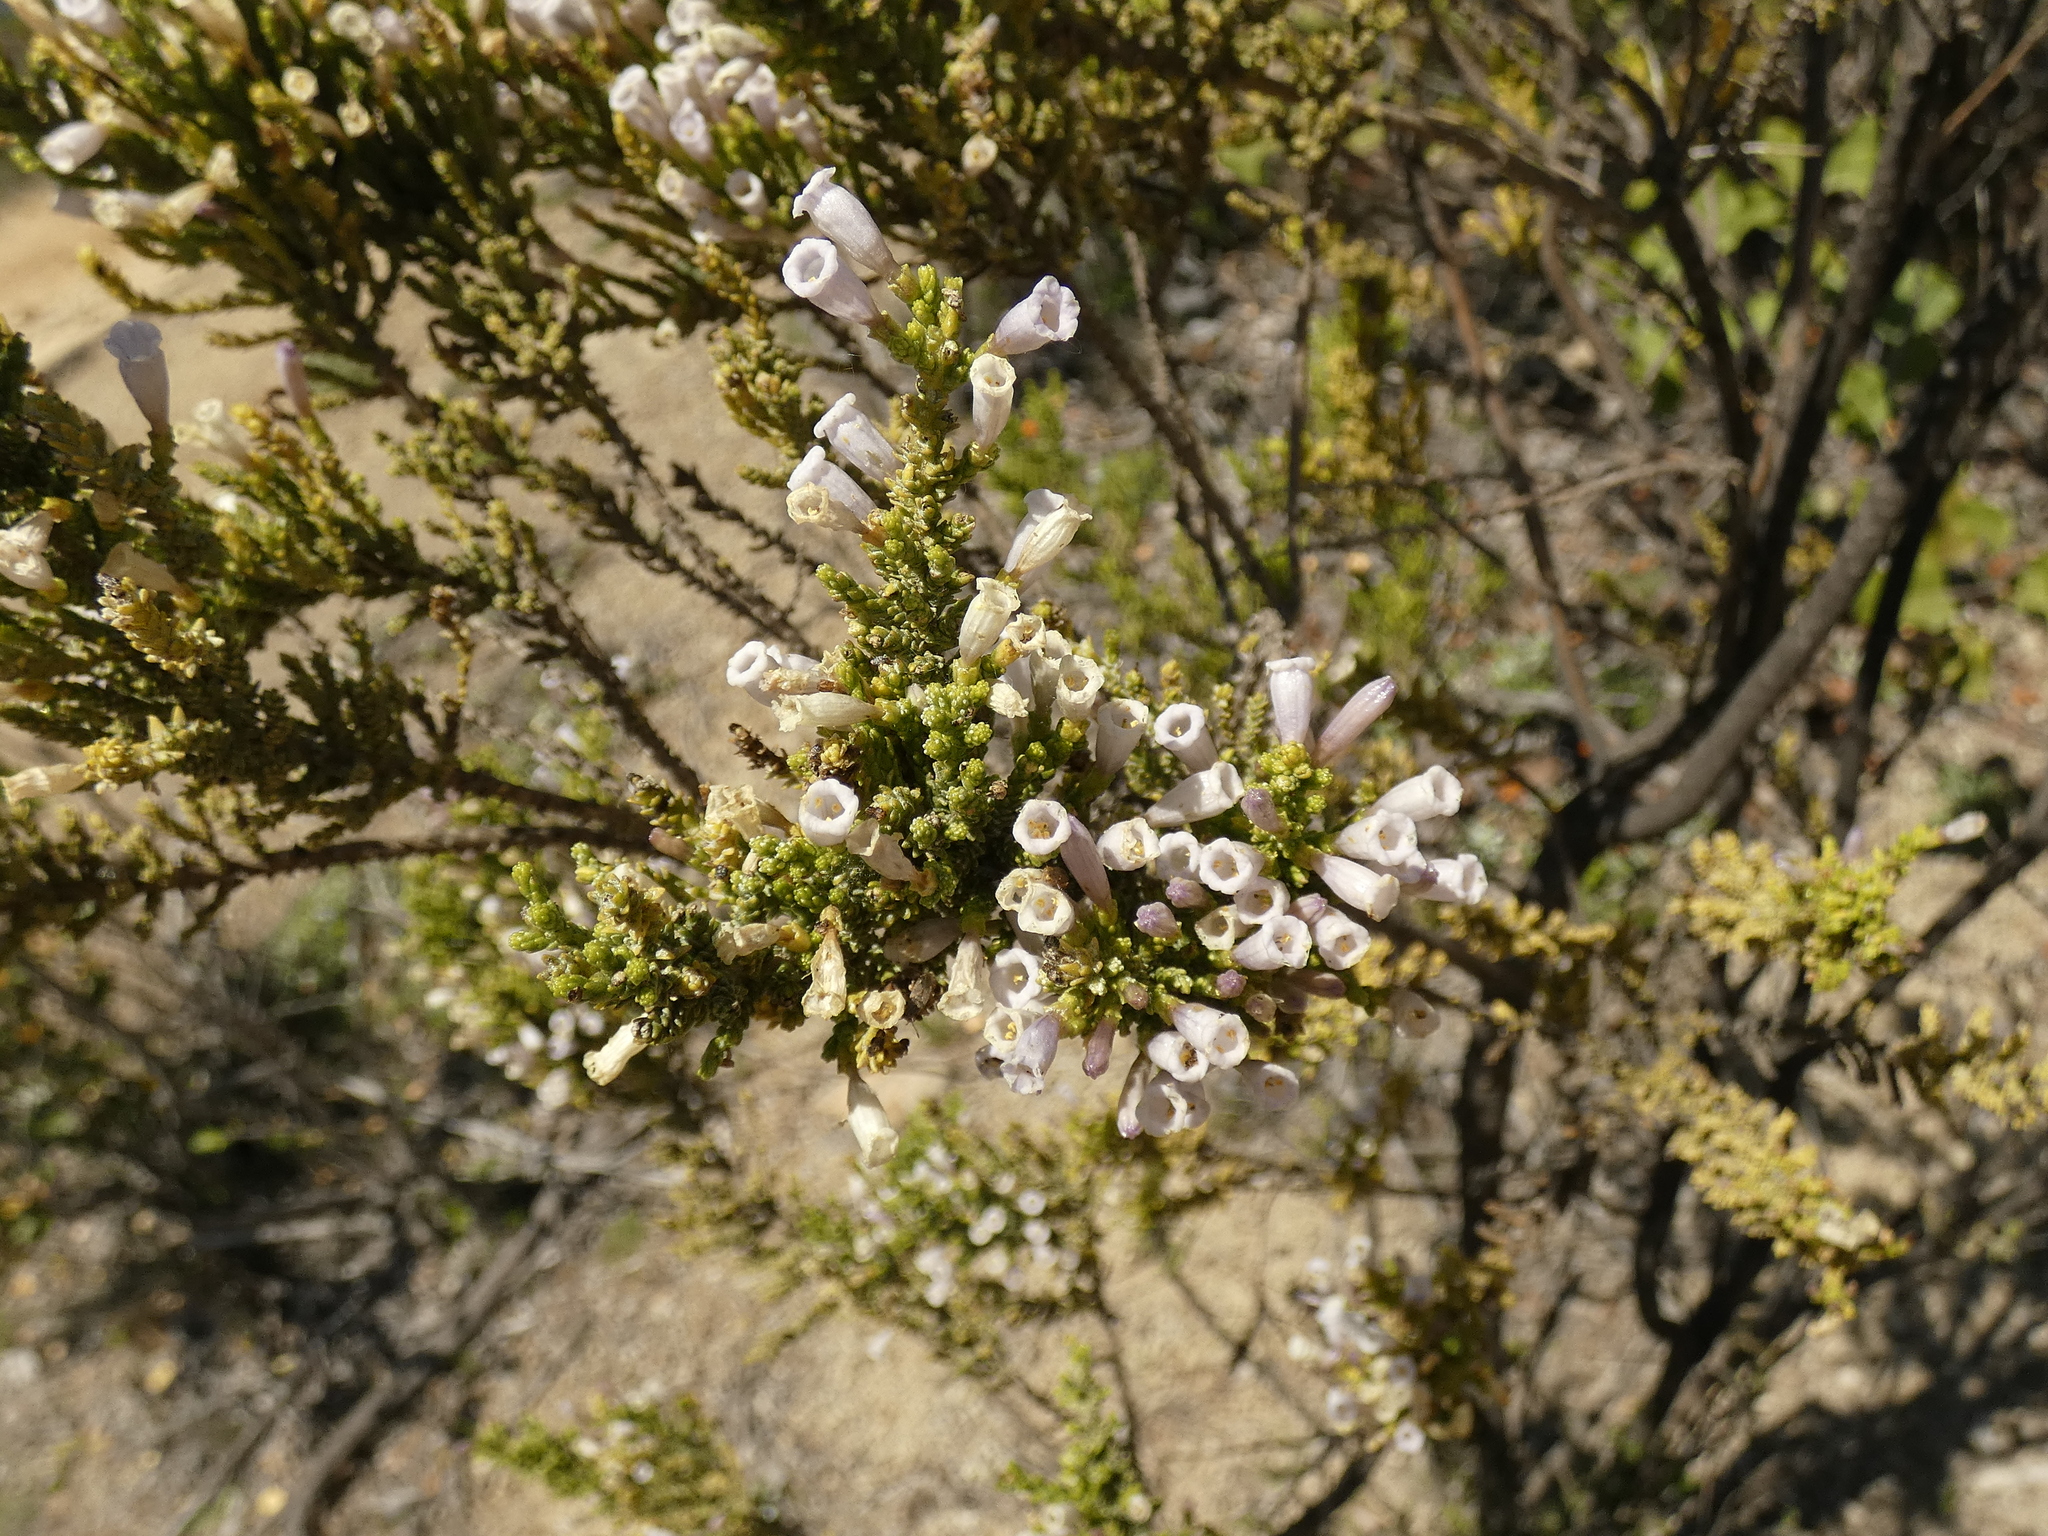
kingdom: Plantae
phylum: Tracheophyta
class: Magnoliopsida
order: Solanales
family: Solanaceae
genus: Fabiana
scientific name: Fabiana imbricata
